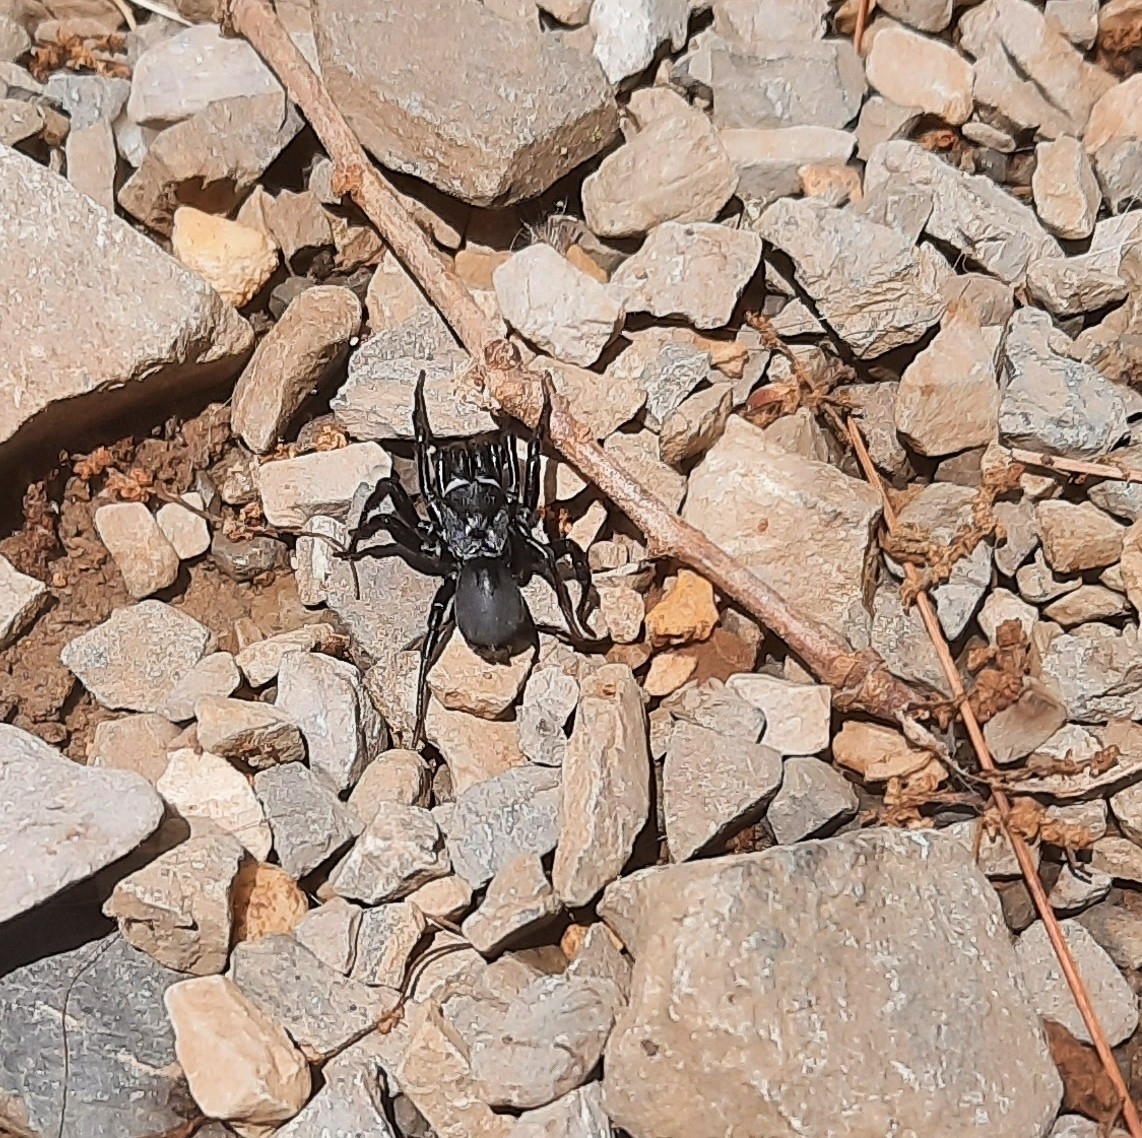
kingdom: Animalia
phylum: Arthropoda
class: Arachnida
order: Araneae
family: Atypidae
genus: Sphodros
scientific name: Sphodros niger
